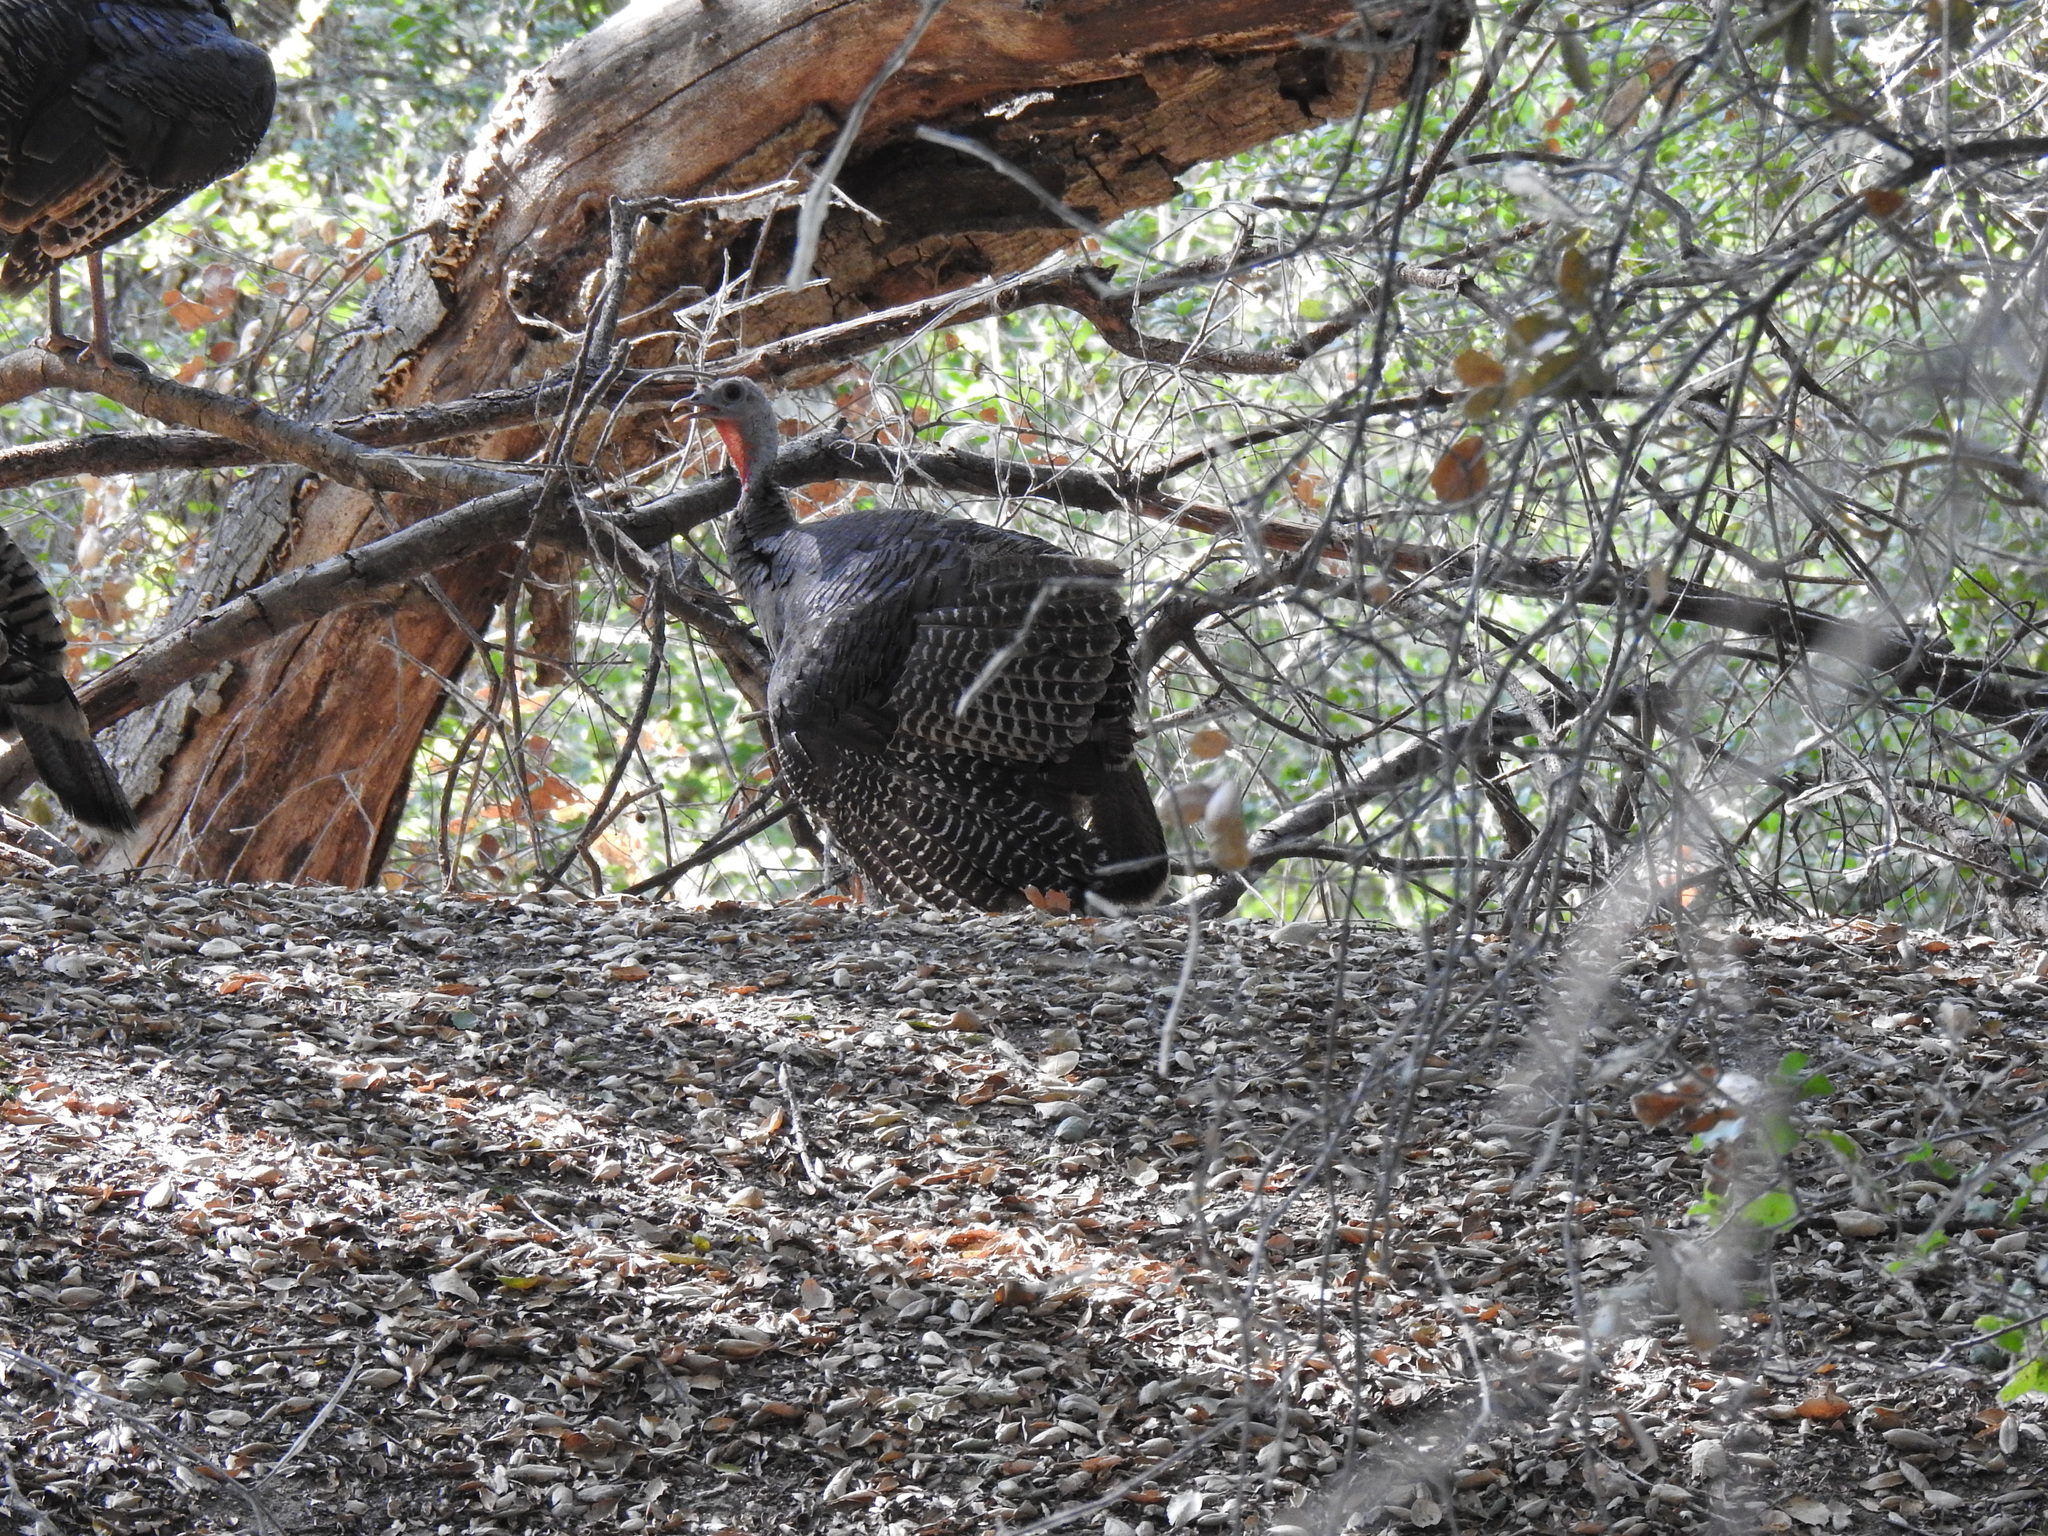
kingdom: Animalia
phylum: Chordata
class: Aves
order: Galliformes
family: Phasianidae
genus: Meleagris
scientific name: Meleagris gallopavo
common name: Wild turkey
